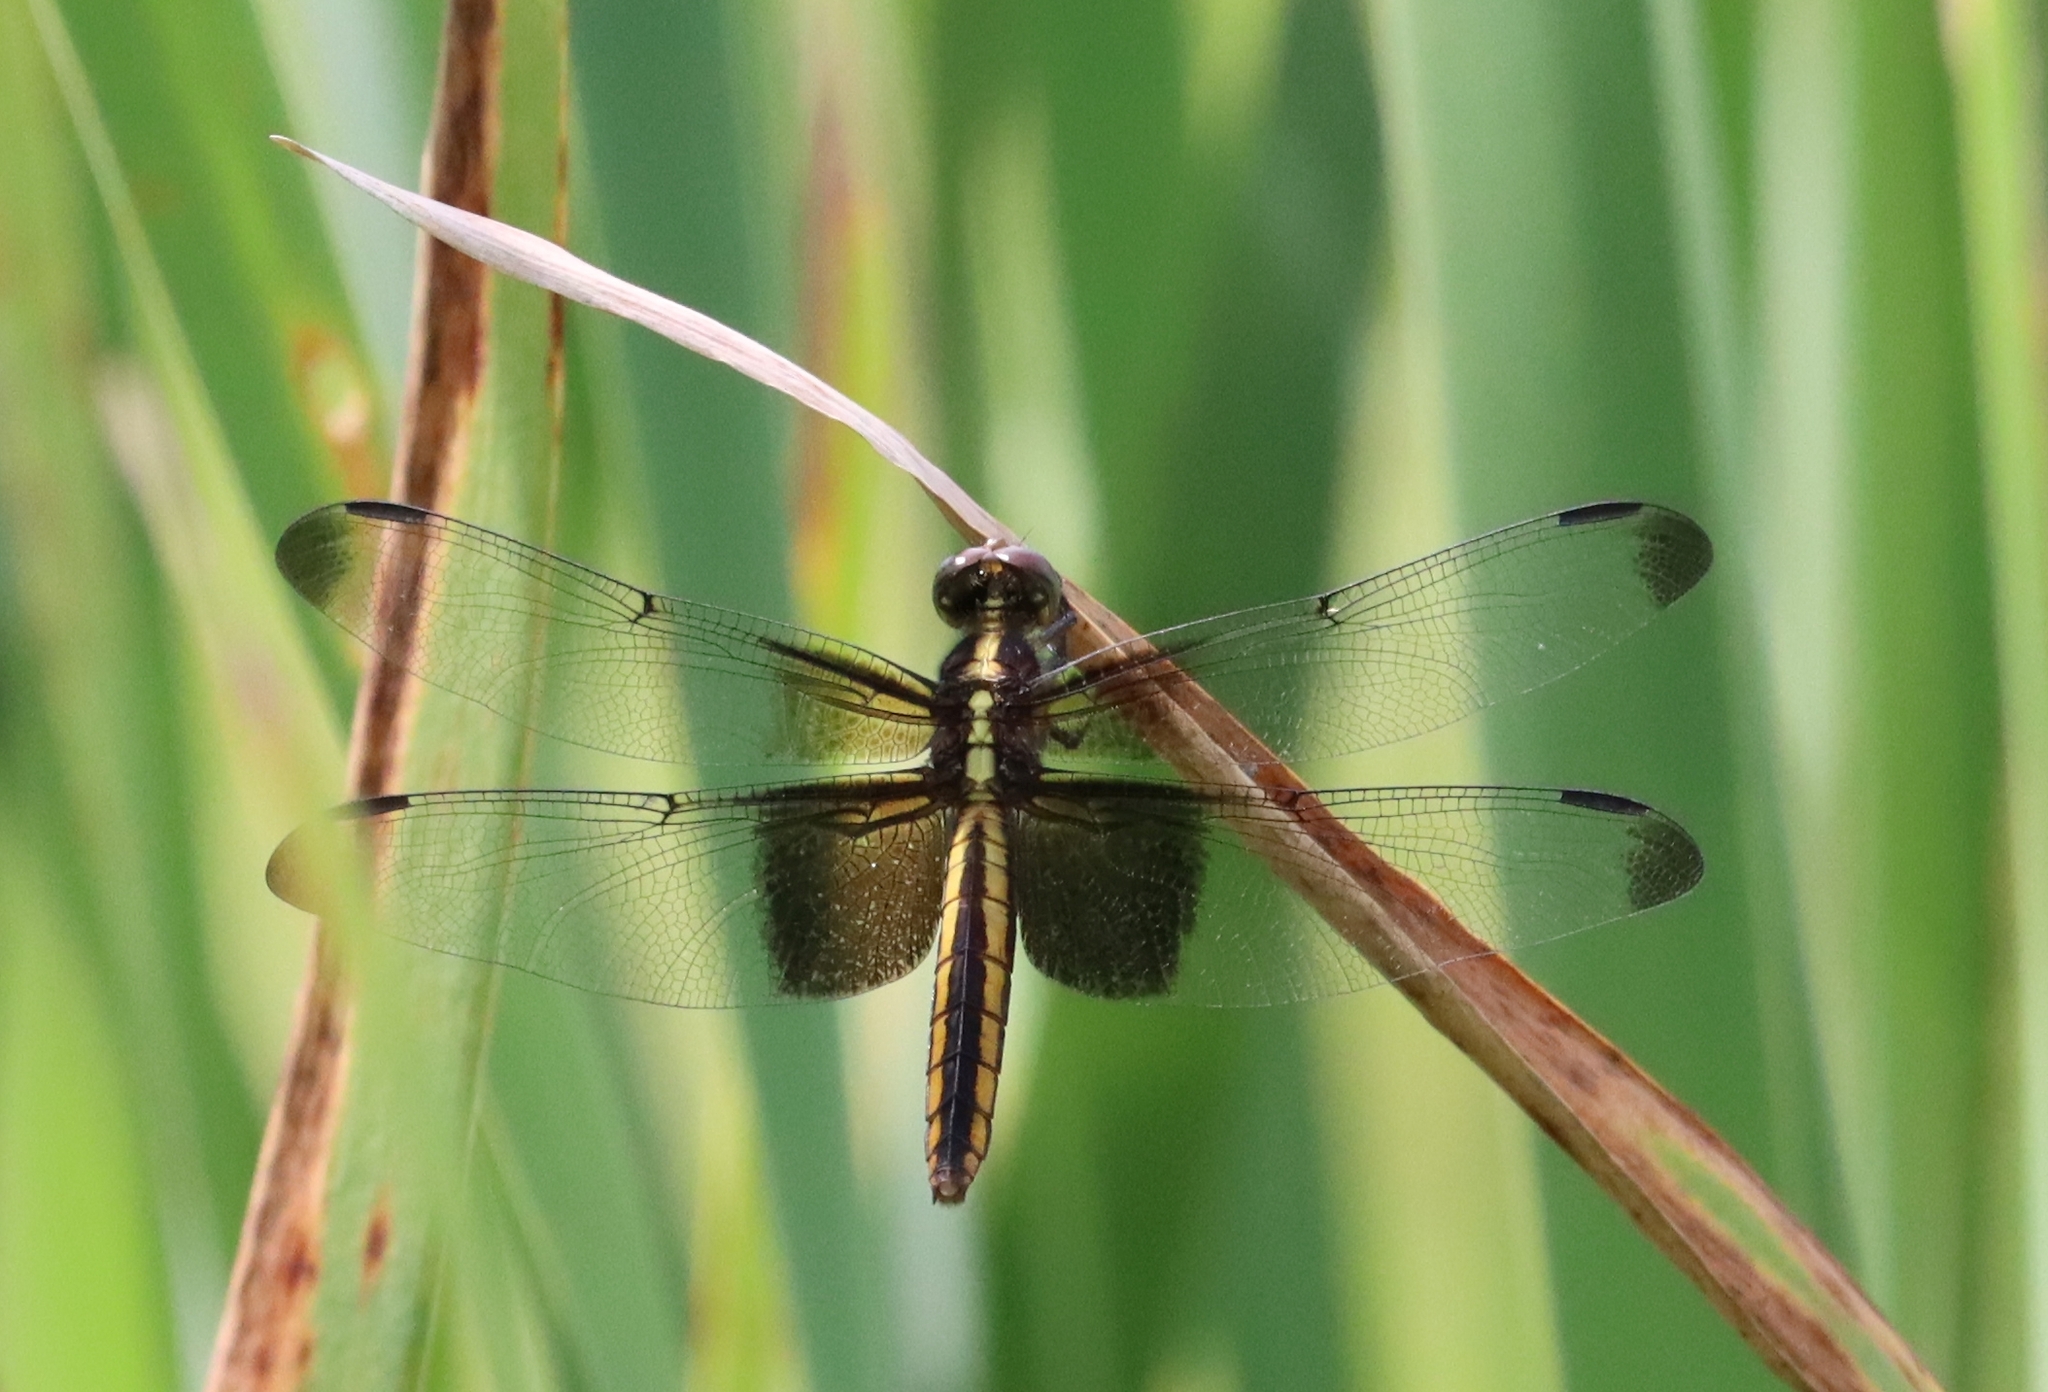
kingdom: Animalia
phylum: Arthropoda
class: Insecta
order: Odonata
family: Libellulidae
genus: Libellula
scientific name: Libellula luctuosa
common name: Widow skimmer
